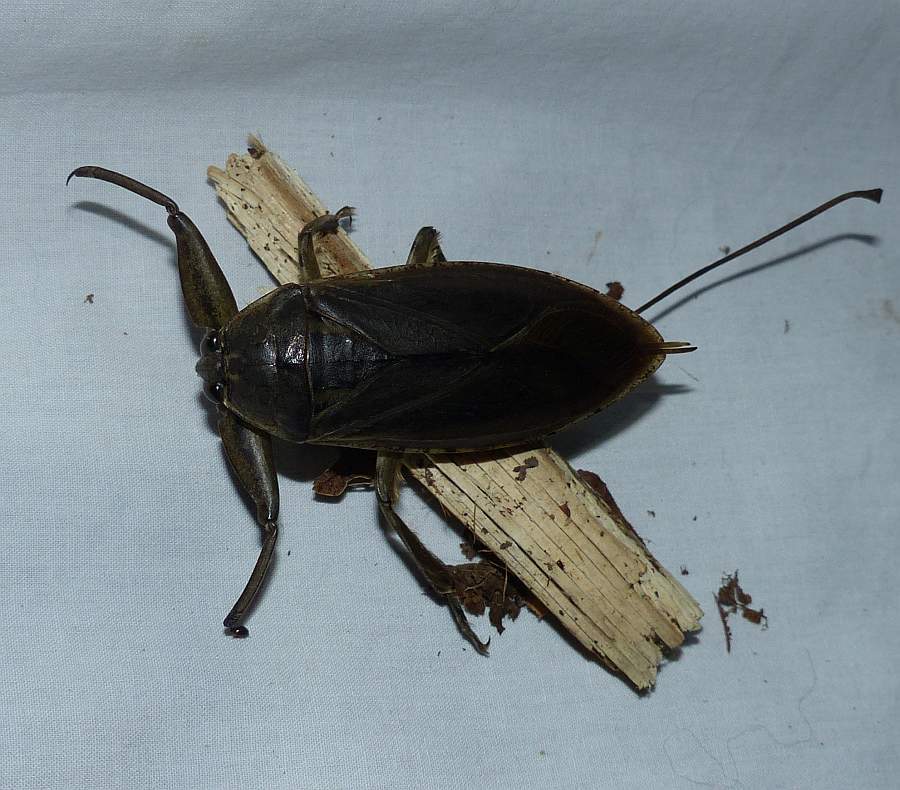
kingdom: Animalia
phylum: Arthropoda
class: Insecta
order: Hemiptera
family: Belostomatidae
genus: Lethocerus
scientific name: Lethocerus americanus
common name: Giant water bug
